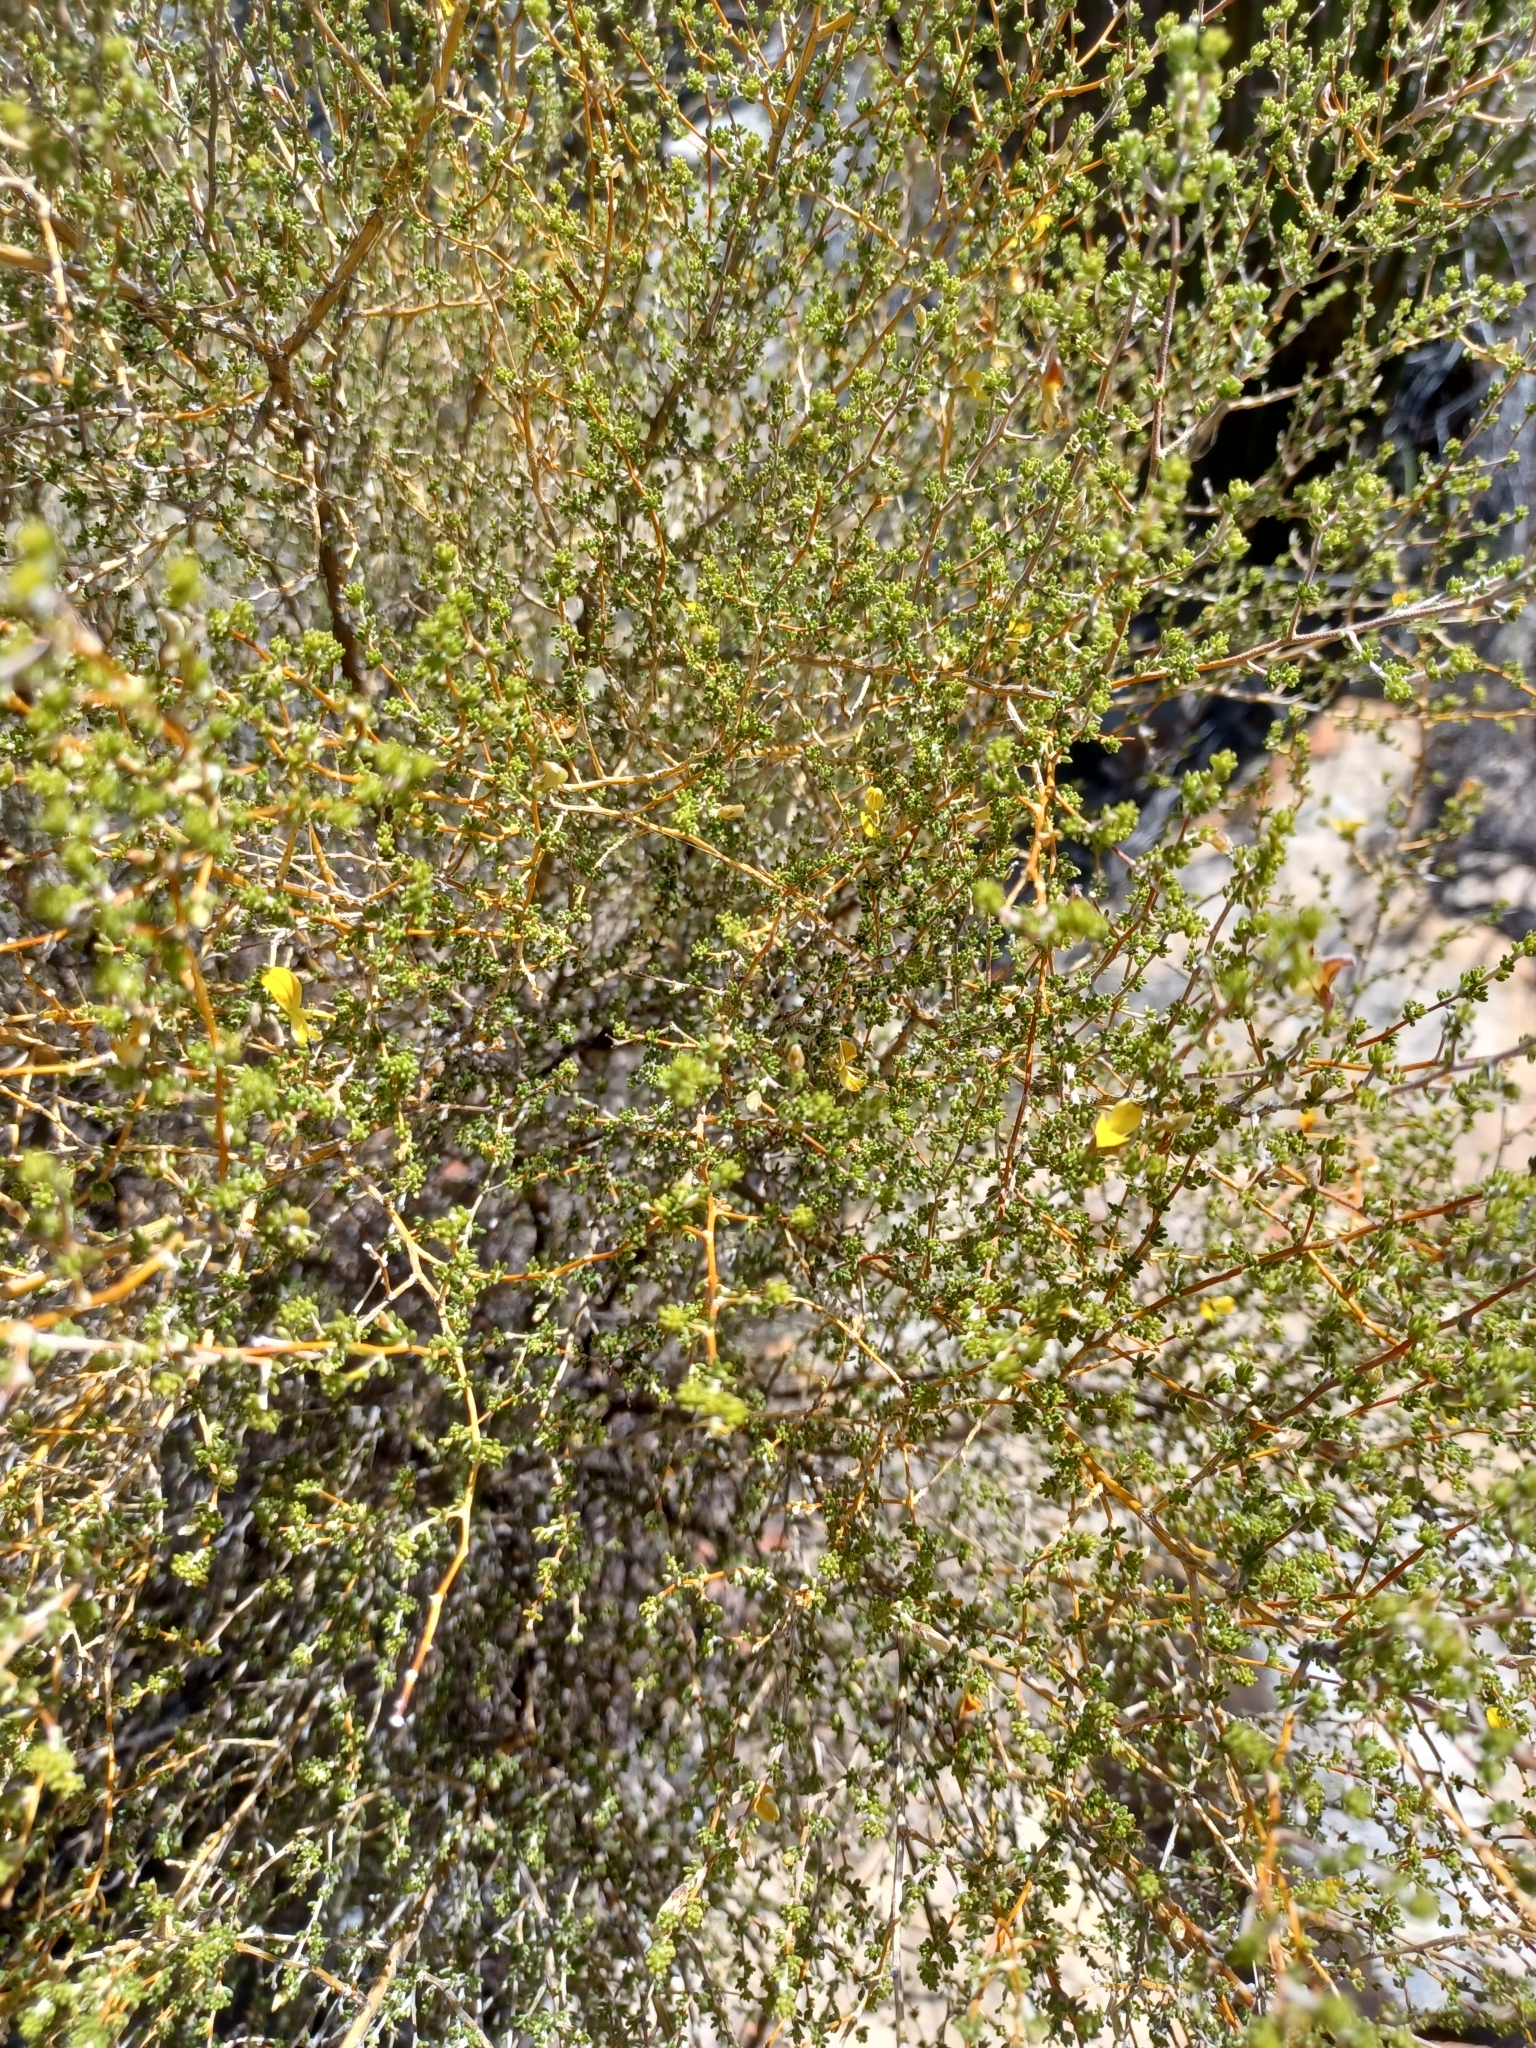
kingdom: Plantae
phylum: Tracheophyta
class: Magnoliopsida
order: Fabales
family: Fabaceae
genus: Aspalathus
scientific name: Aspalathus pilantha
